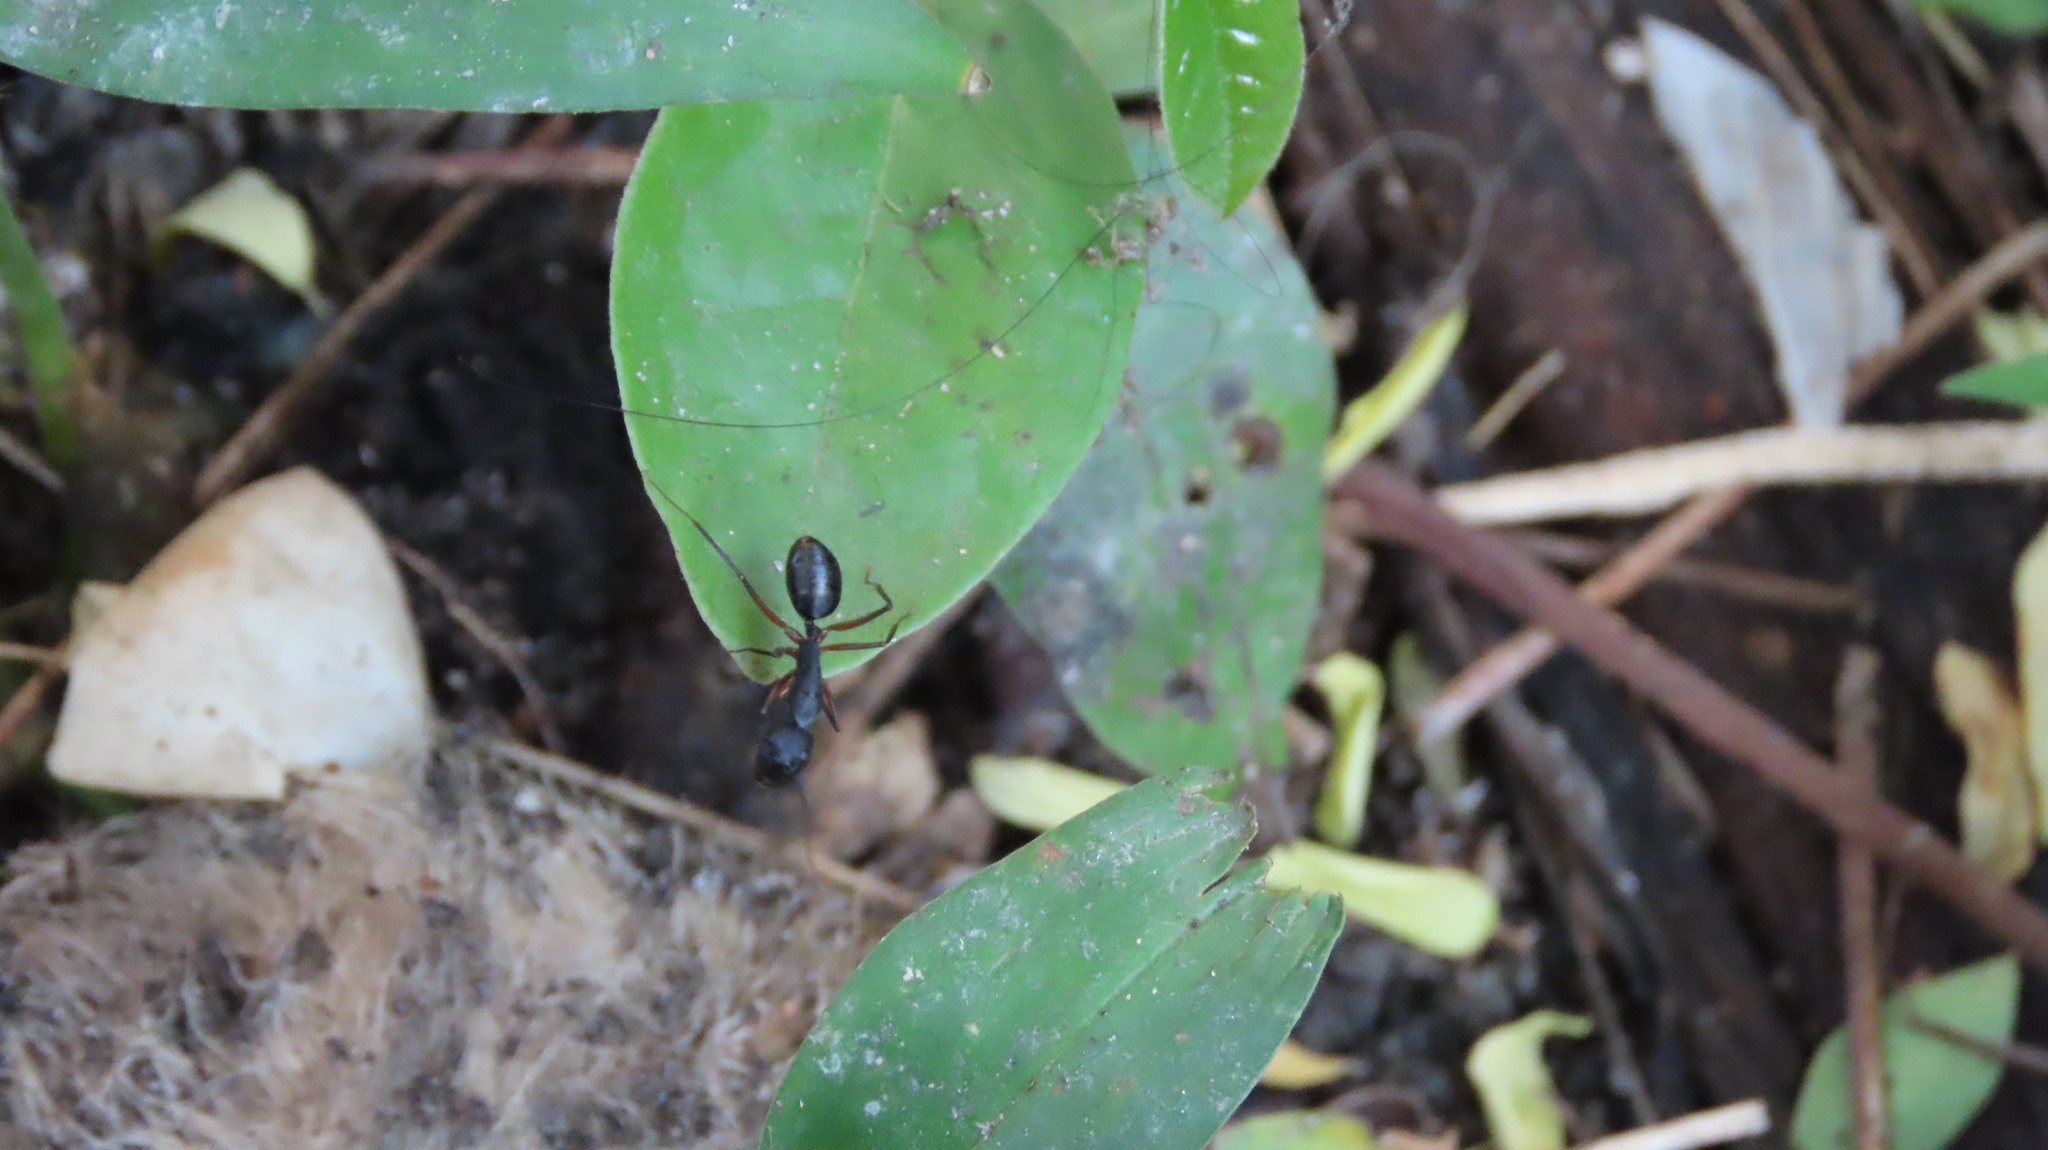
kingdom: Animalia
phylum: Arthropoda
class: Insecta
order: Hymenoptera
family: Formicidae
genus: Camponotus
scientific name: Camponotus compressus
